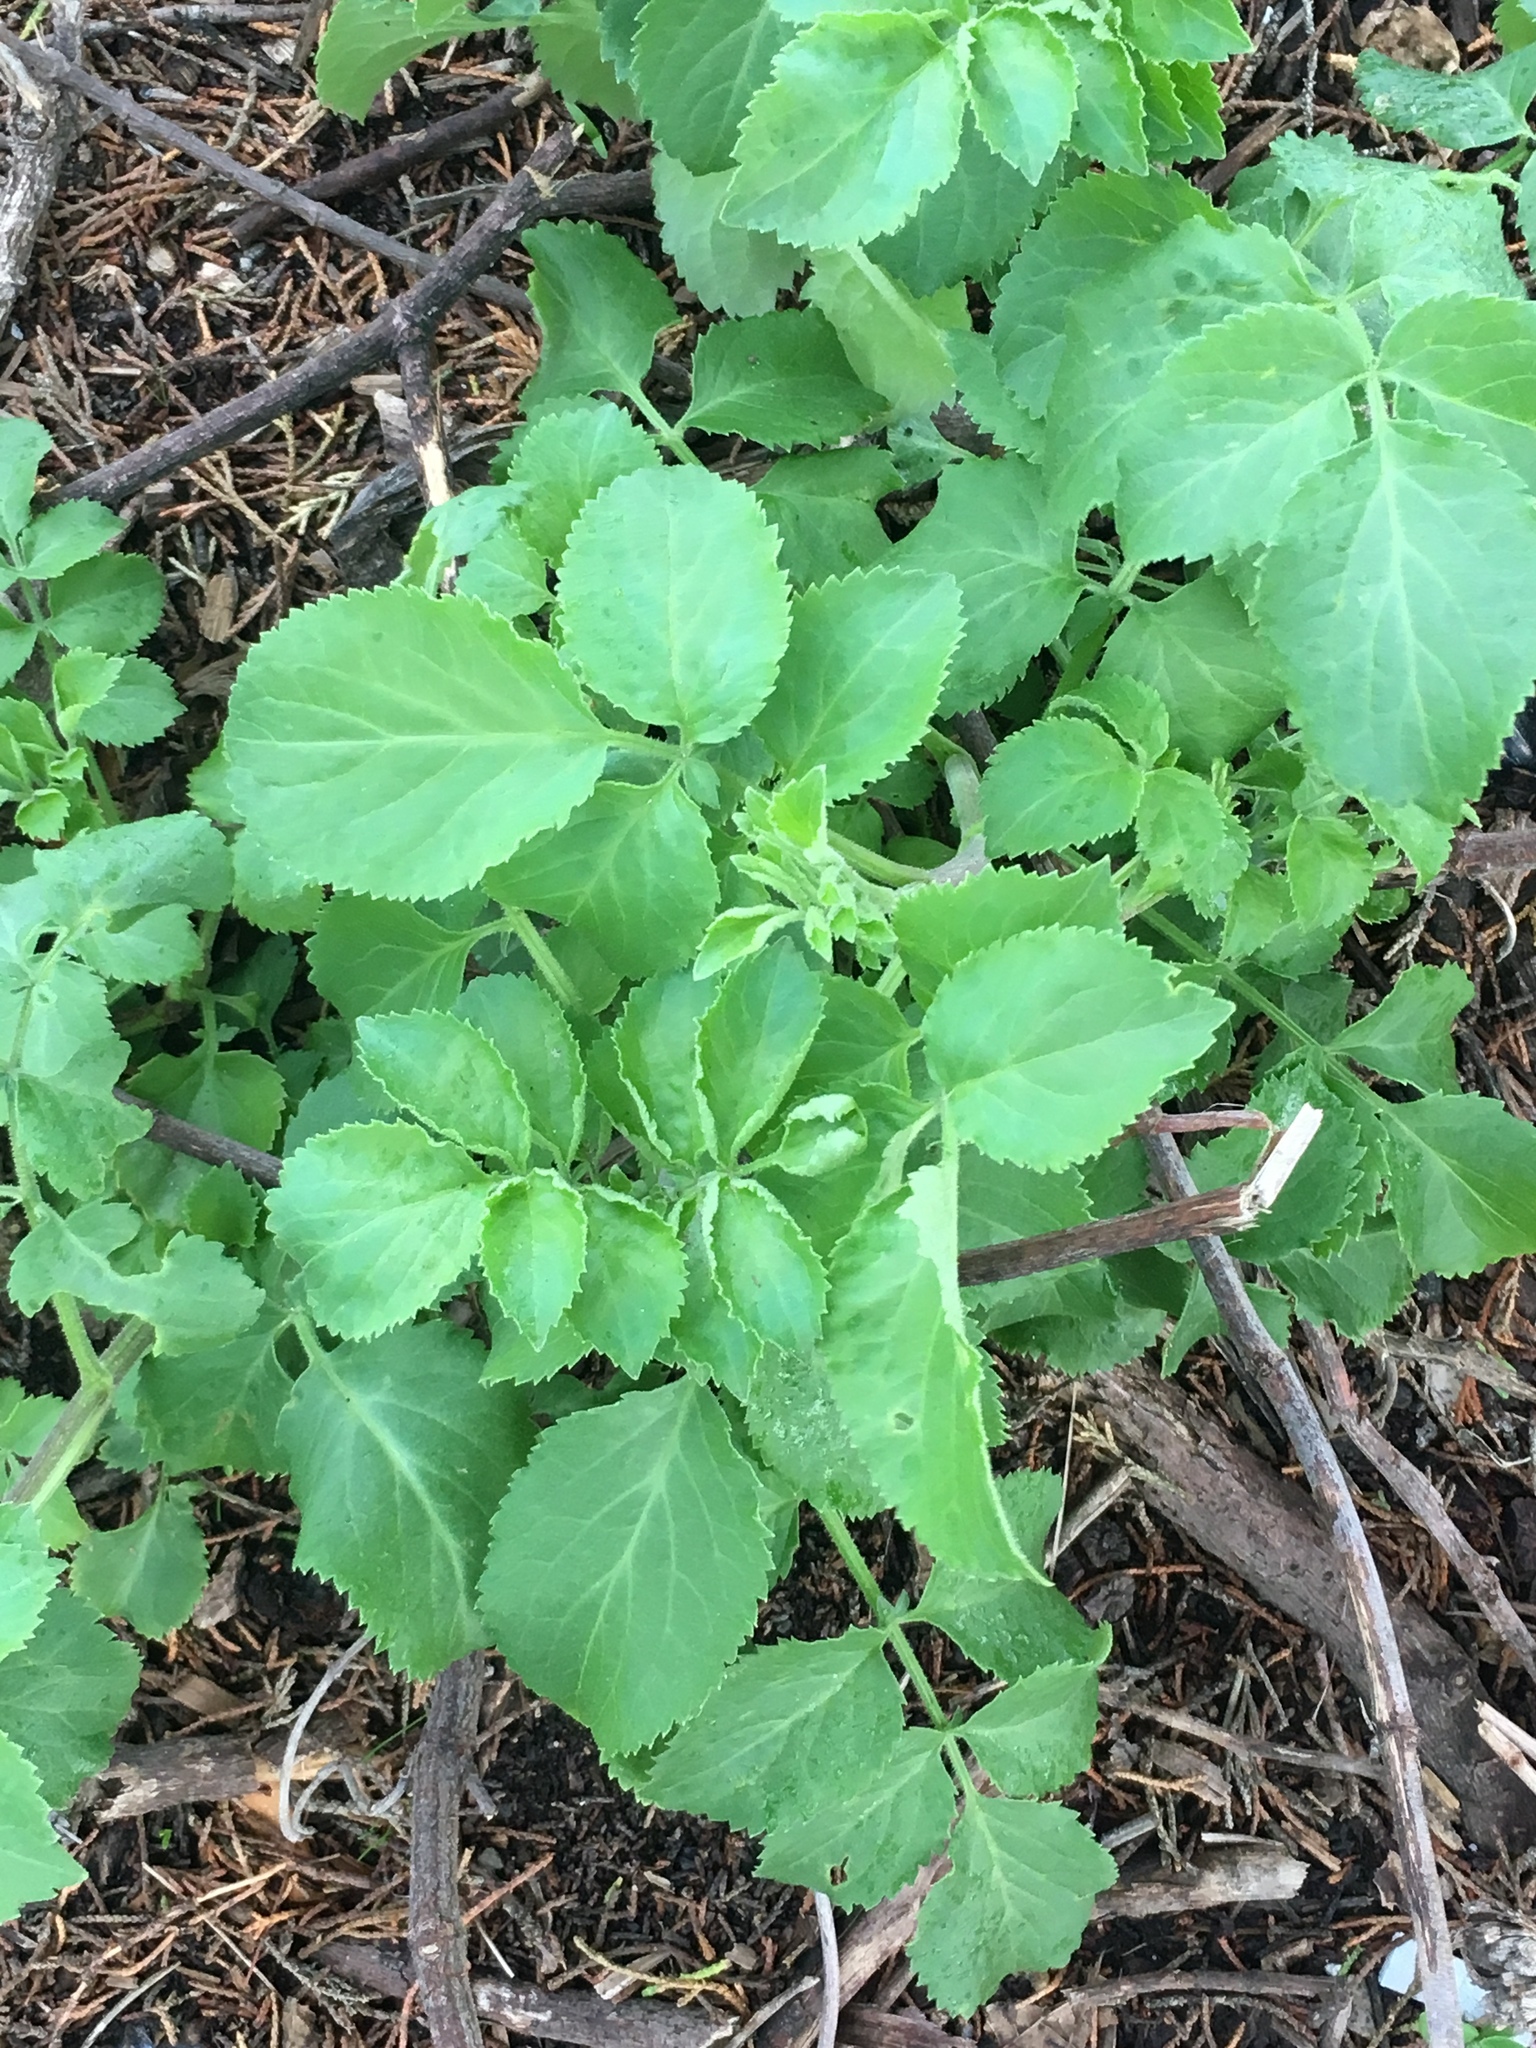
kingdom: Plantae
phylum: Tracheophyta
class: Magnoliopsida
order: Dipsacales
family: Viburnaceae
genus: Sambucus
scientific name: Sambucus cerulea
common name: Blue elder
